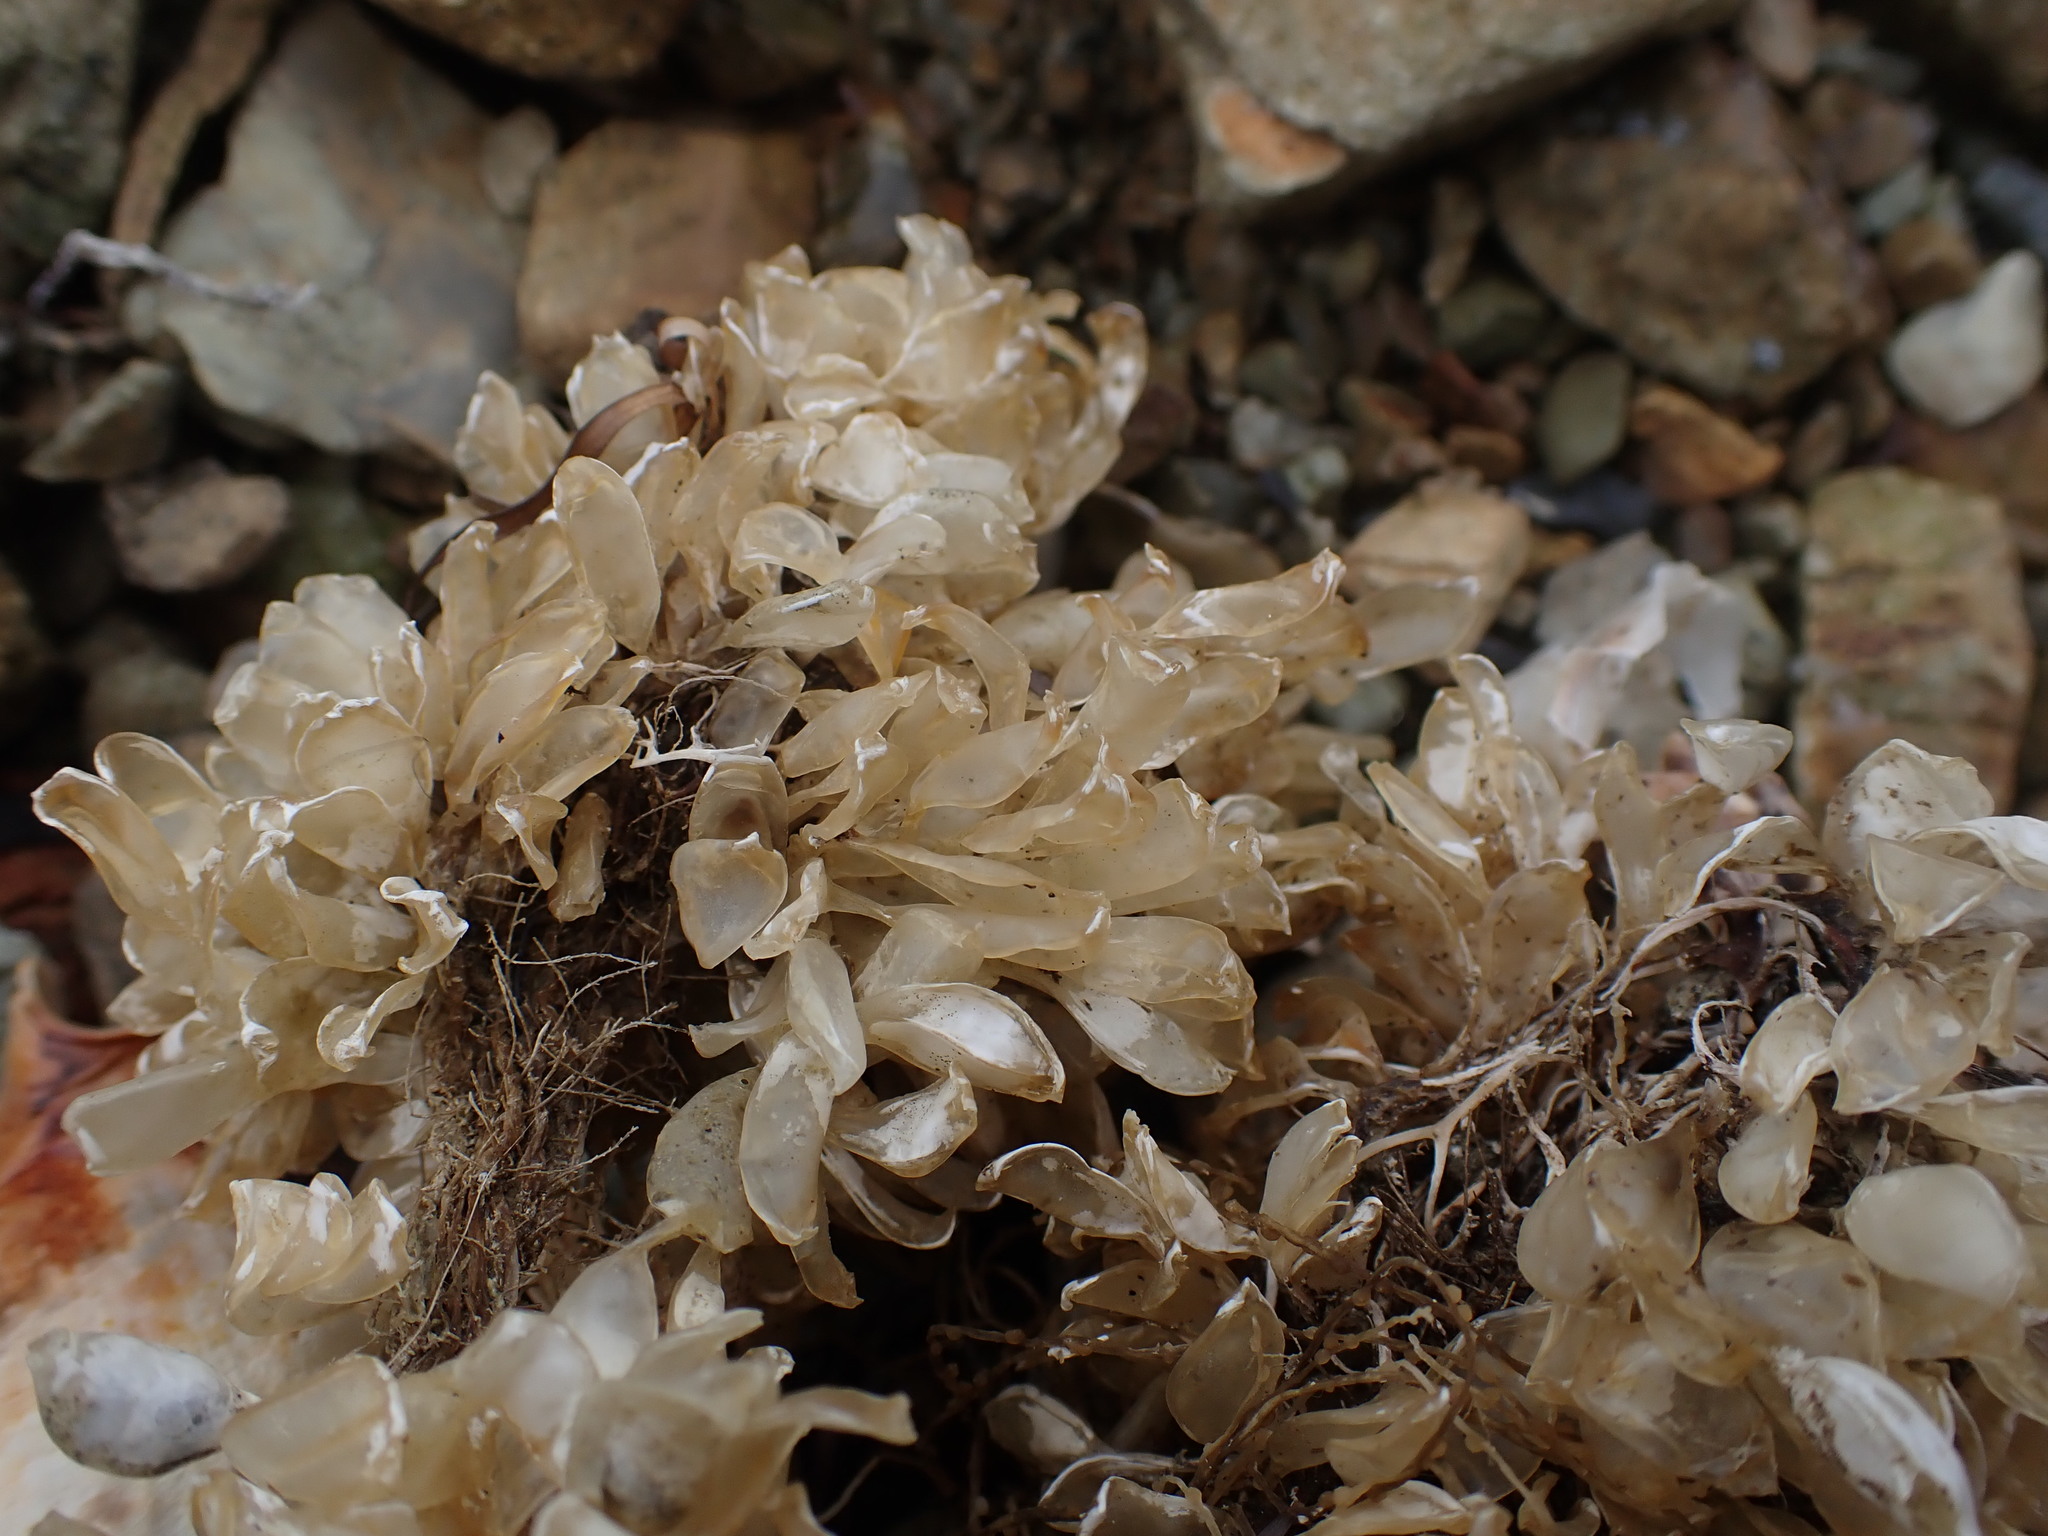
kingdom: Animalia
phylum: Mollusca
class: Gastropoda
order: Neogastropoda
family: Cominellidae
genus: Cominella
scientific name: Cominella adspersa
